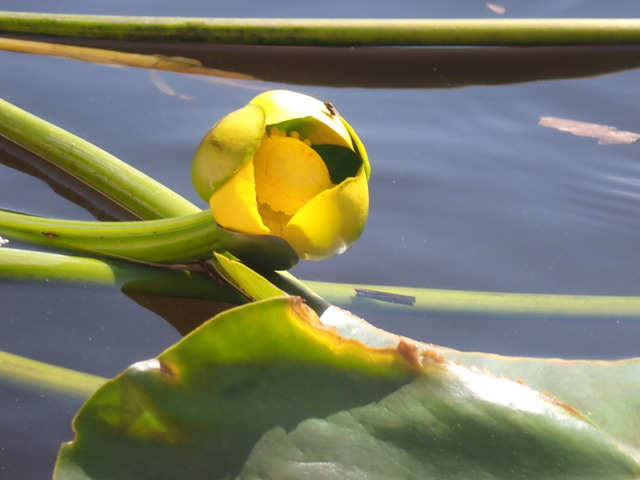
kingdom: Plantae
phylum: Tracheophyta
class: Magnoliopsida
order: Nymphaeales
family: Nymphaeaceae
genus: Nuphar
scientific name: Nuphar advena
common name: Spatter-dock
